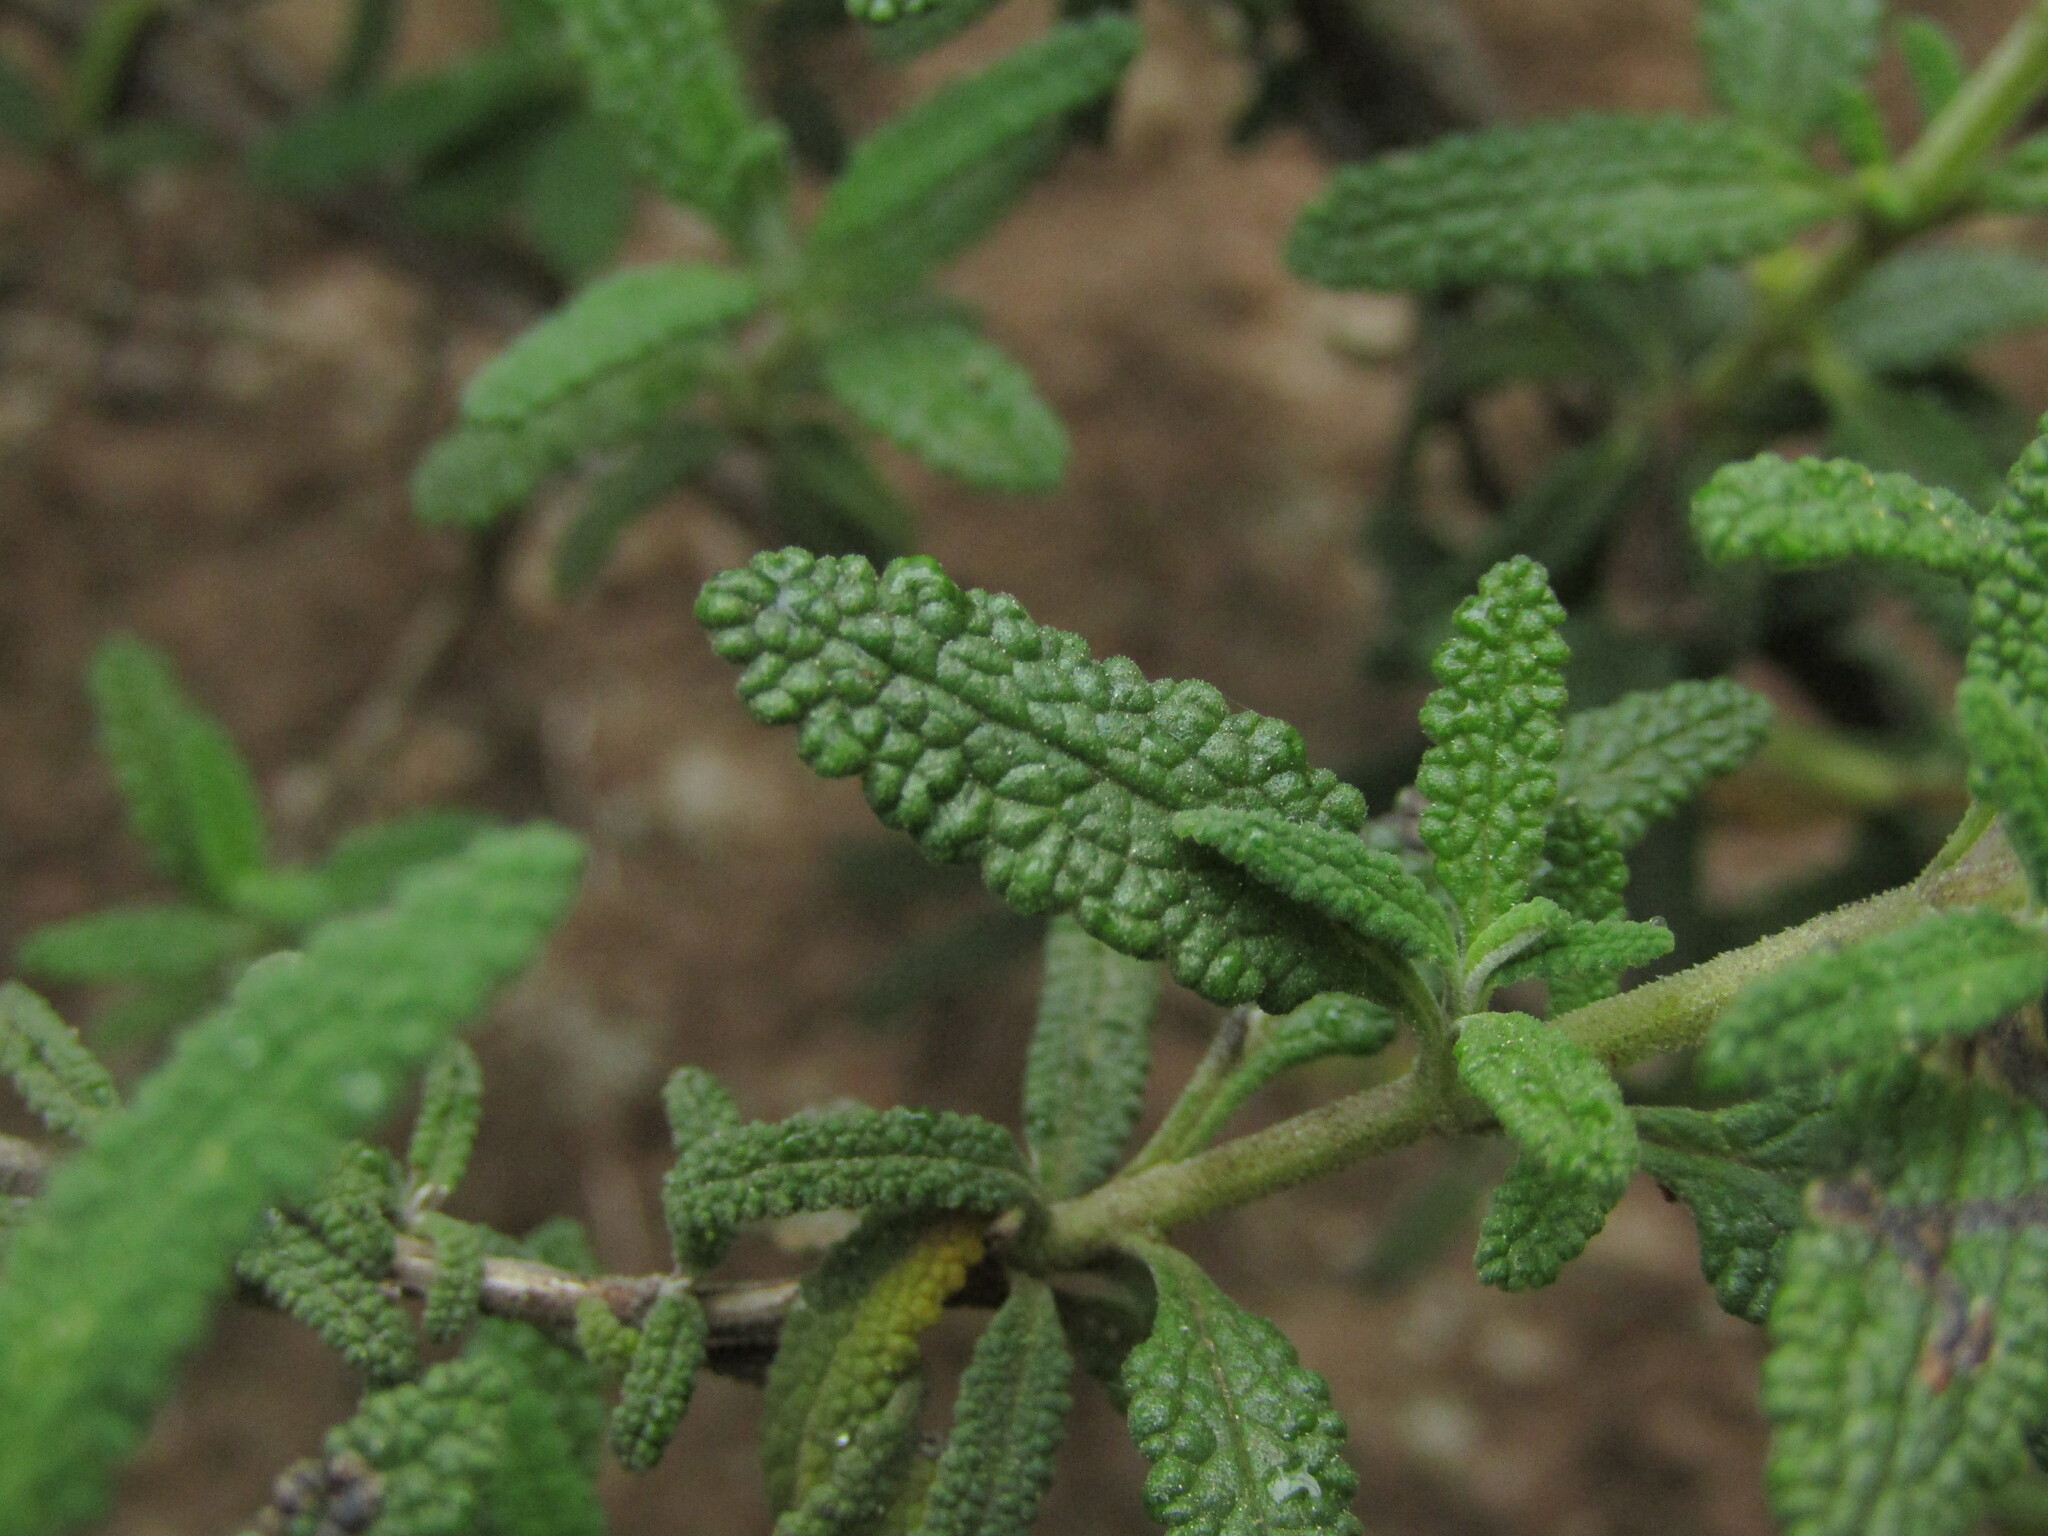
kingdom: Plantae
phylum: Tracheophyta
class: Magnoliopsida
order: Lamiales
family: Lamiaceae
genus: Lepechinia
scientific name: Lepechinia chilensis
